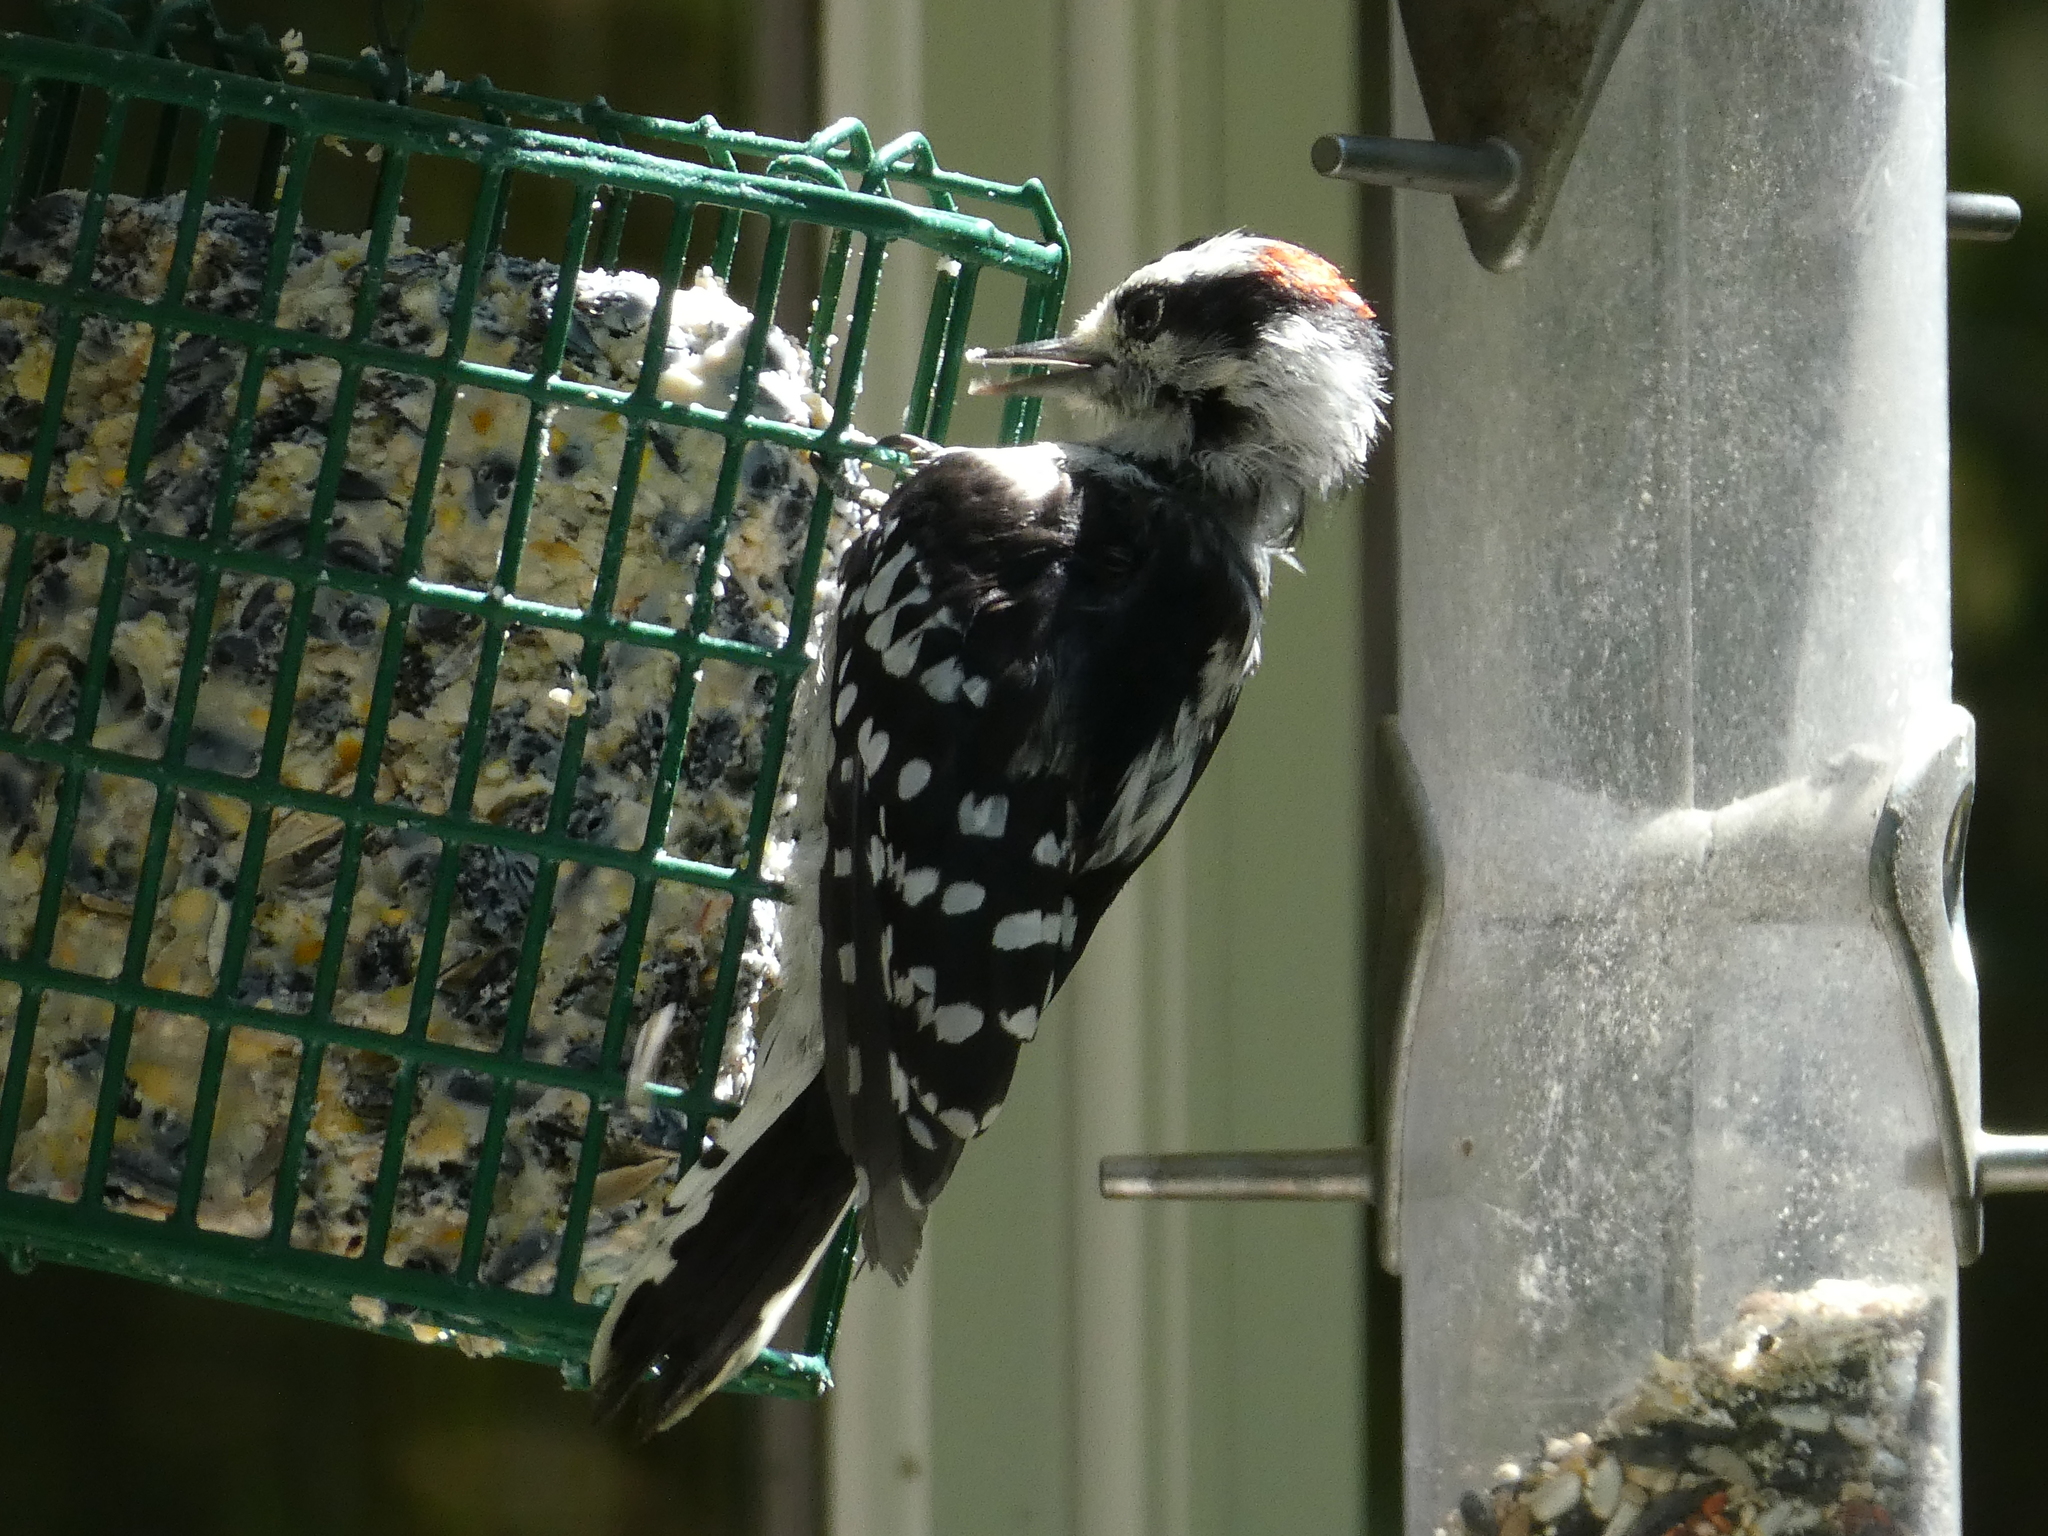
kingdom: Animalia
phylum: Chordata
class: Aves
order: Piciformes
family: Picidae
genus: Dryobates
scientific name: Dryobates pubescens
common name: Downy woodpecker
